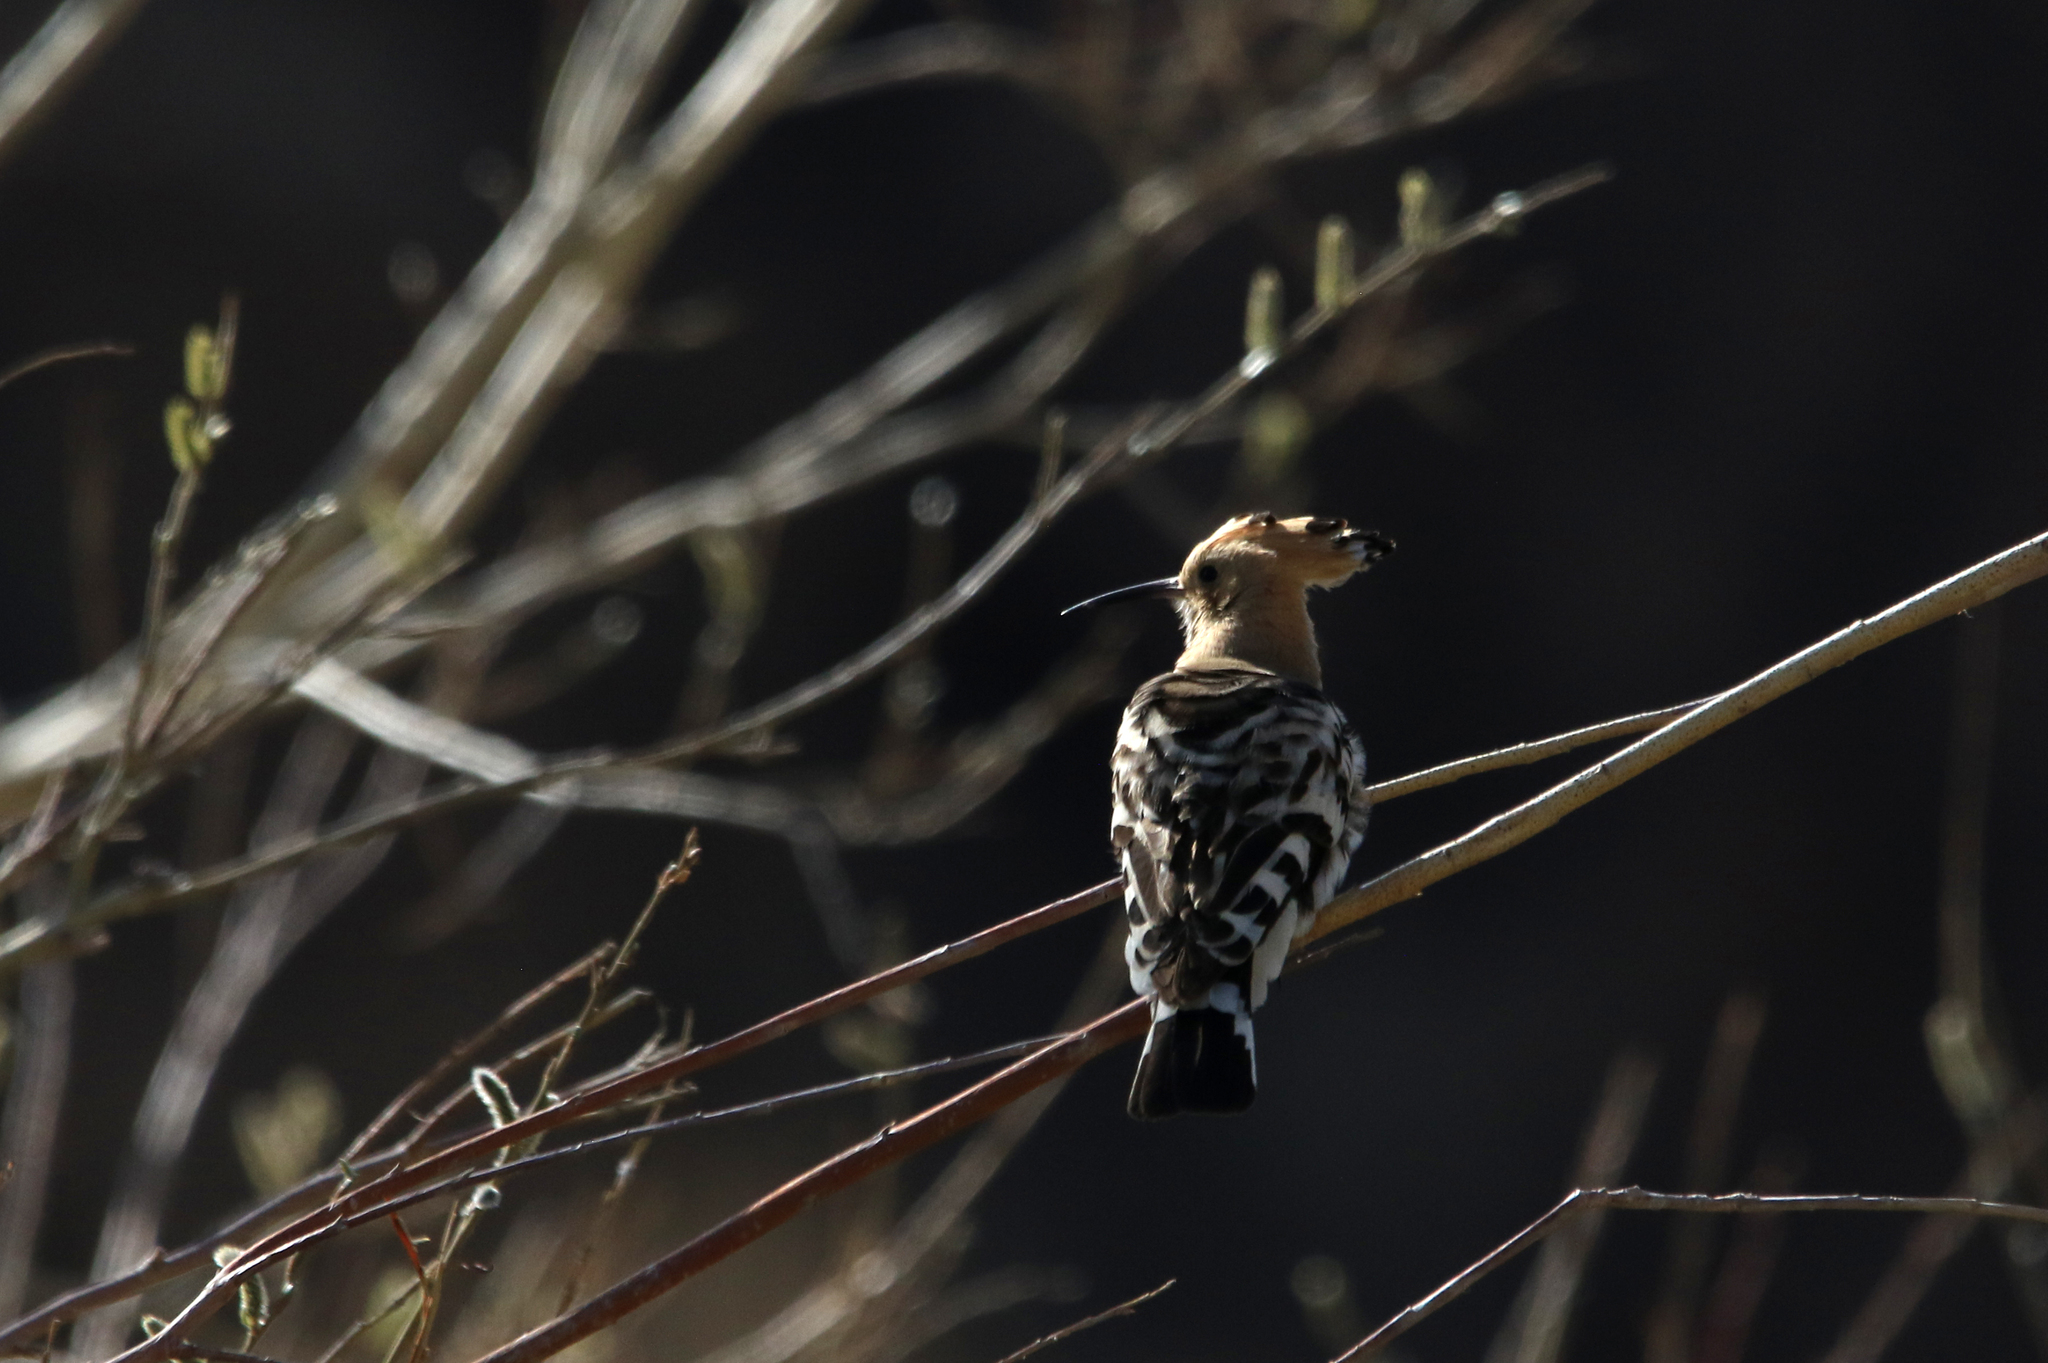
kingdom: Animalia
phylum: Chordata
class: Aves
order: Bucerotiformes
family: Upupidae
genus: Upupa
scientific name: Upupa epops
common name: Eurasian hoopoe
